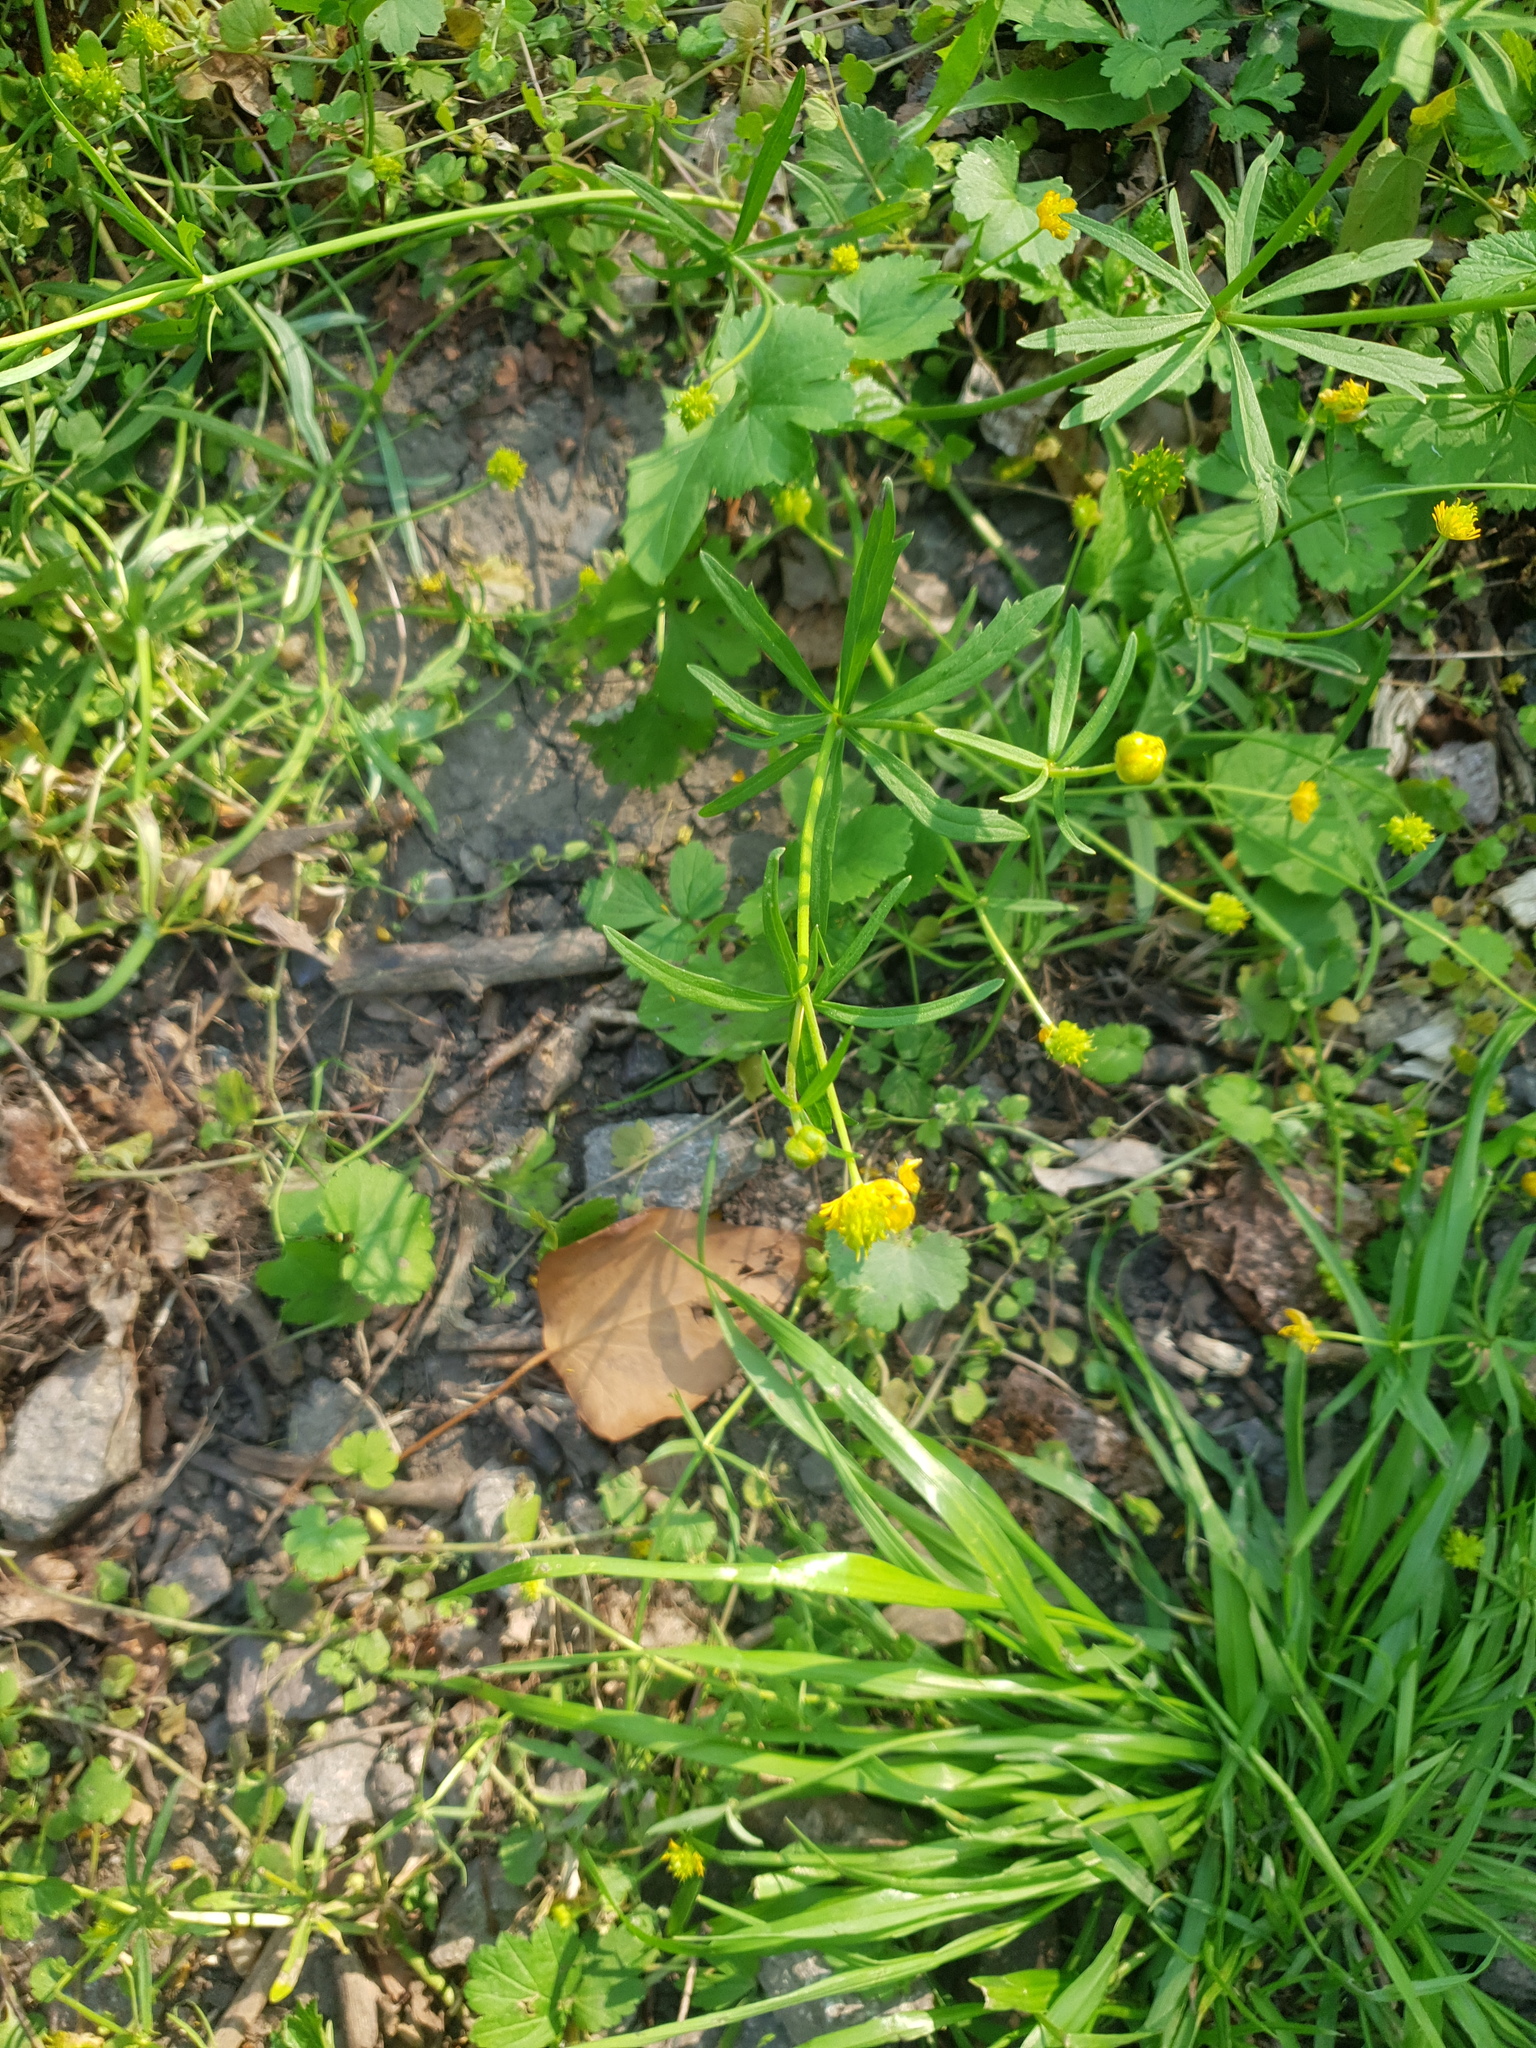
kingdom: Plantae
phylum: Tracheophyta
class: Magnoliopsida
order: Ranunculales
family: Ranunculaceae
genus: Ranunculus
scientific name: Ranunculus auricomus
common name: Goldilocks buttercup
